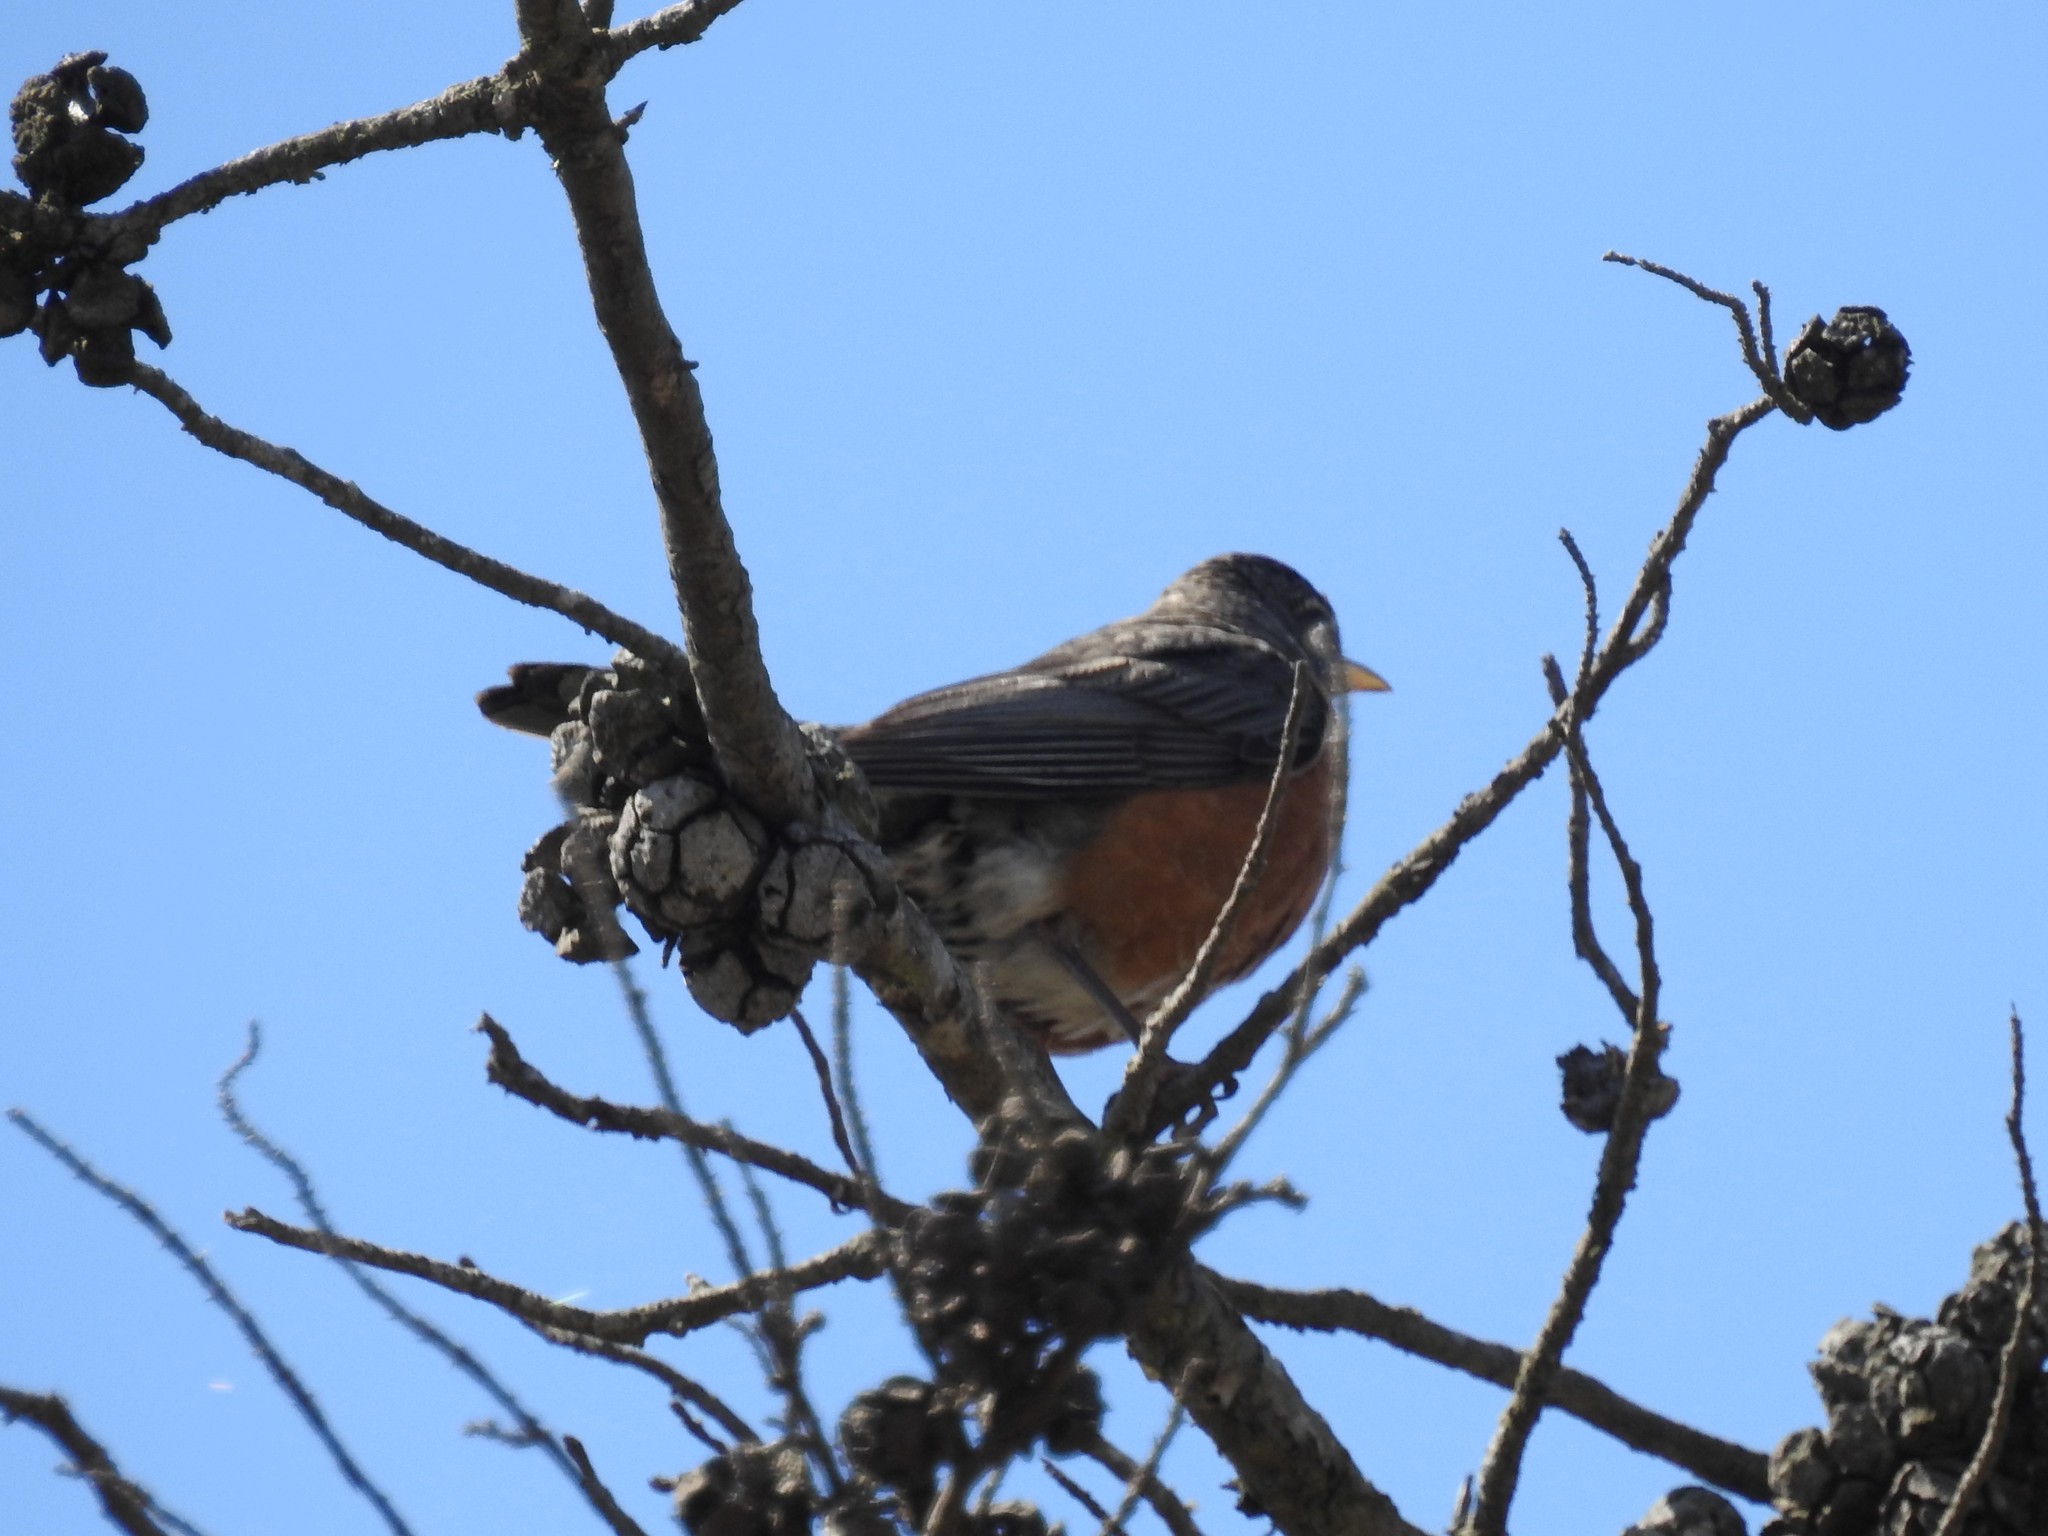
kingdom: Animalia
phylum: Chordata
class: Aves
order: Passeriformes
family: Turdidae
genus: Turdus
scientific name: Turdus migratorius
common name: American robin
